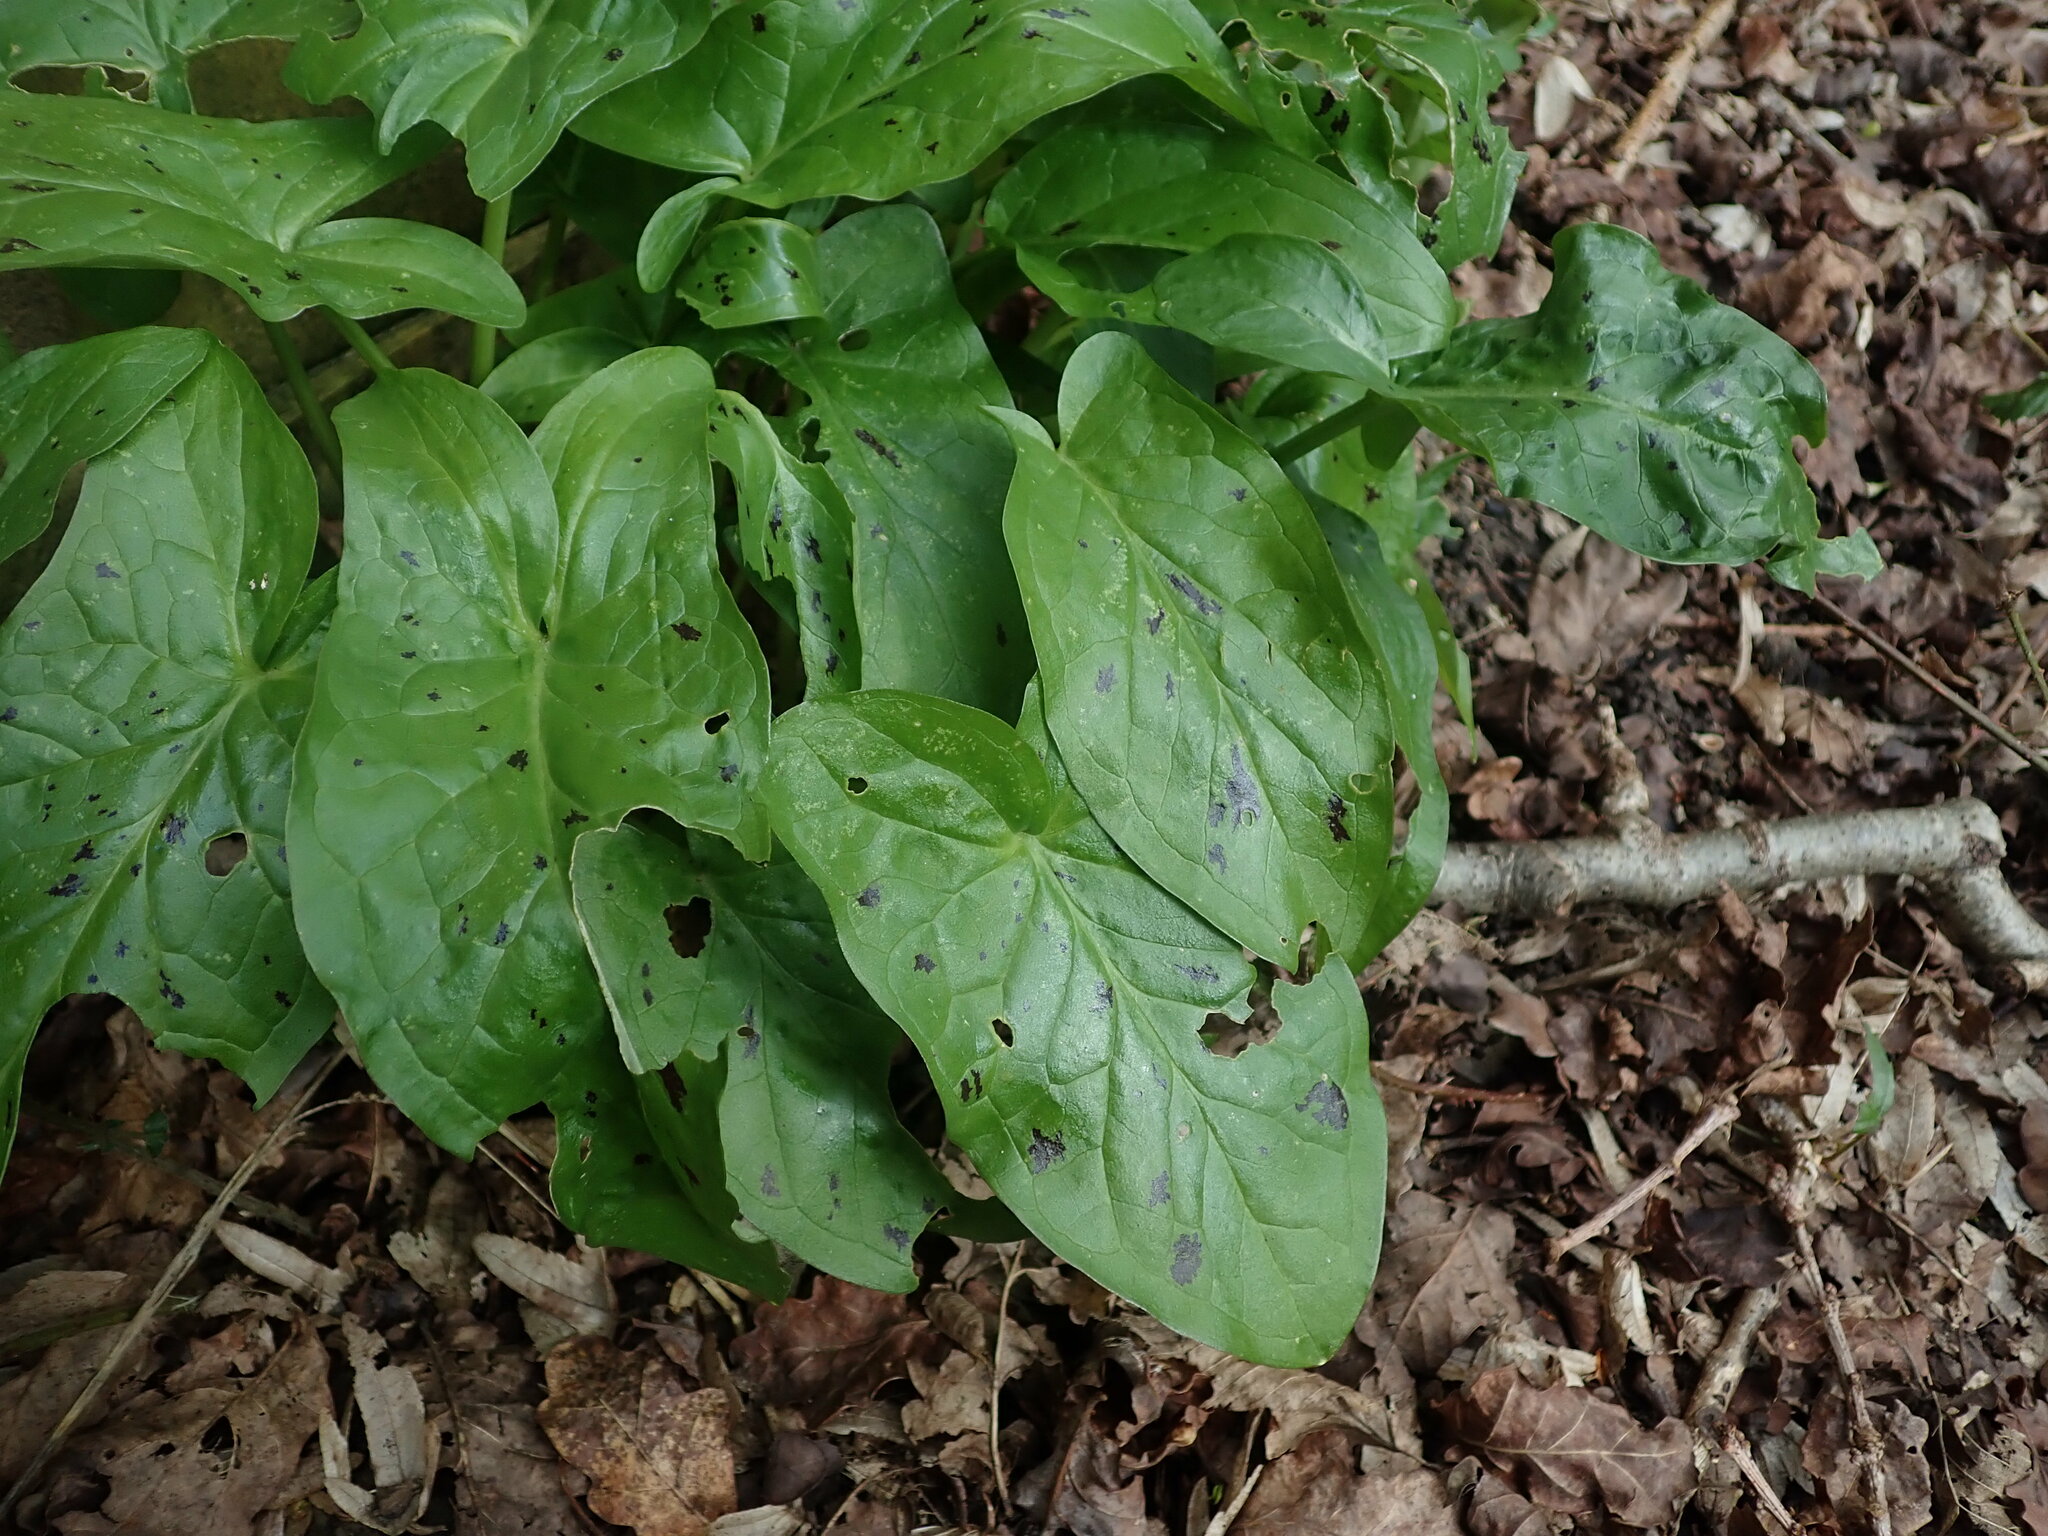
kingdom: Plantae
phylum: Tracheophyta
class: Liliopsida
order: Alismatales
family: Araceae
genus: Arum
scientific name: Arum maculatum
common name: Lords-and-ladies
